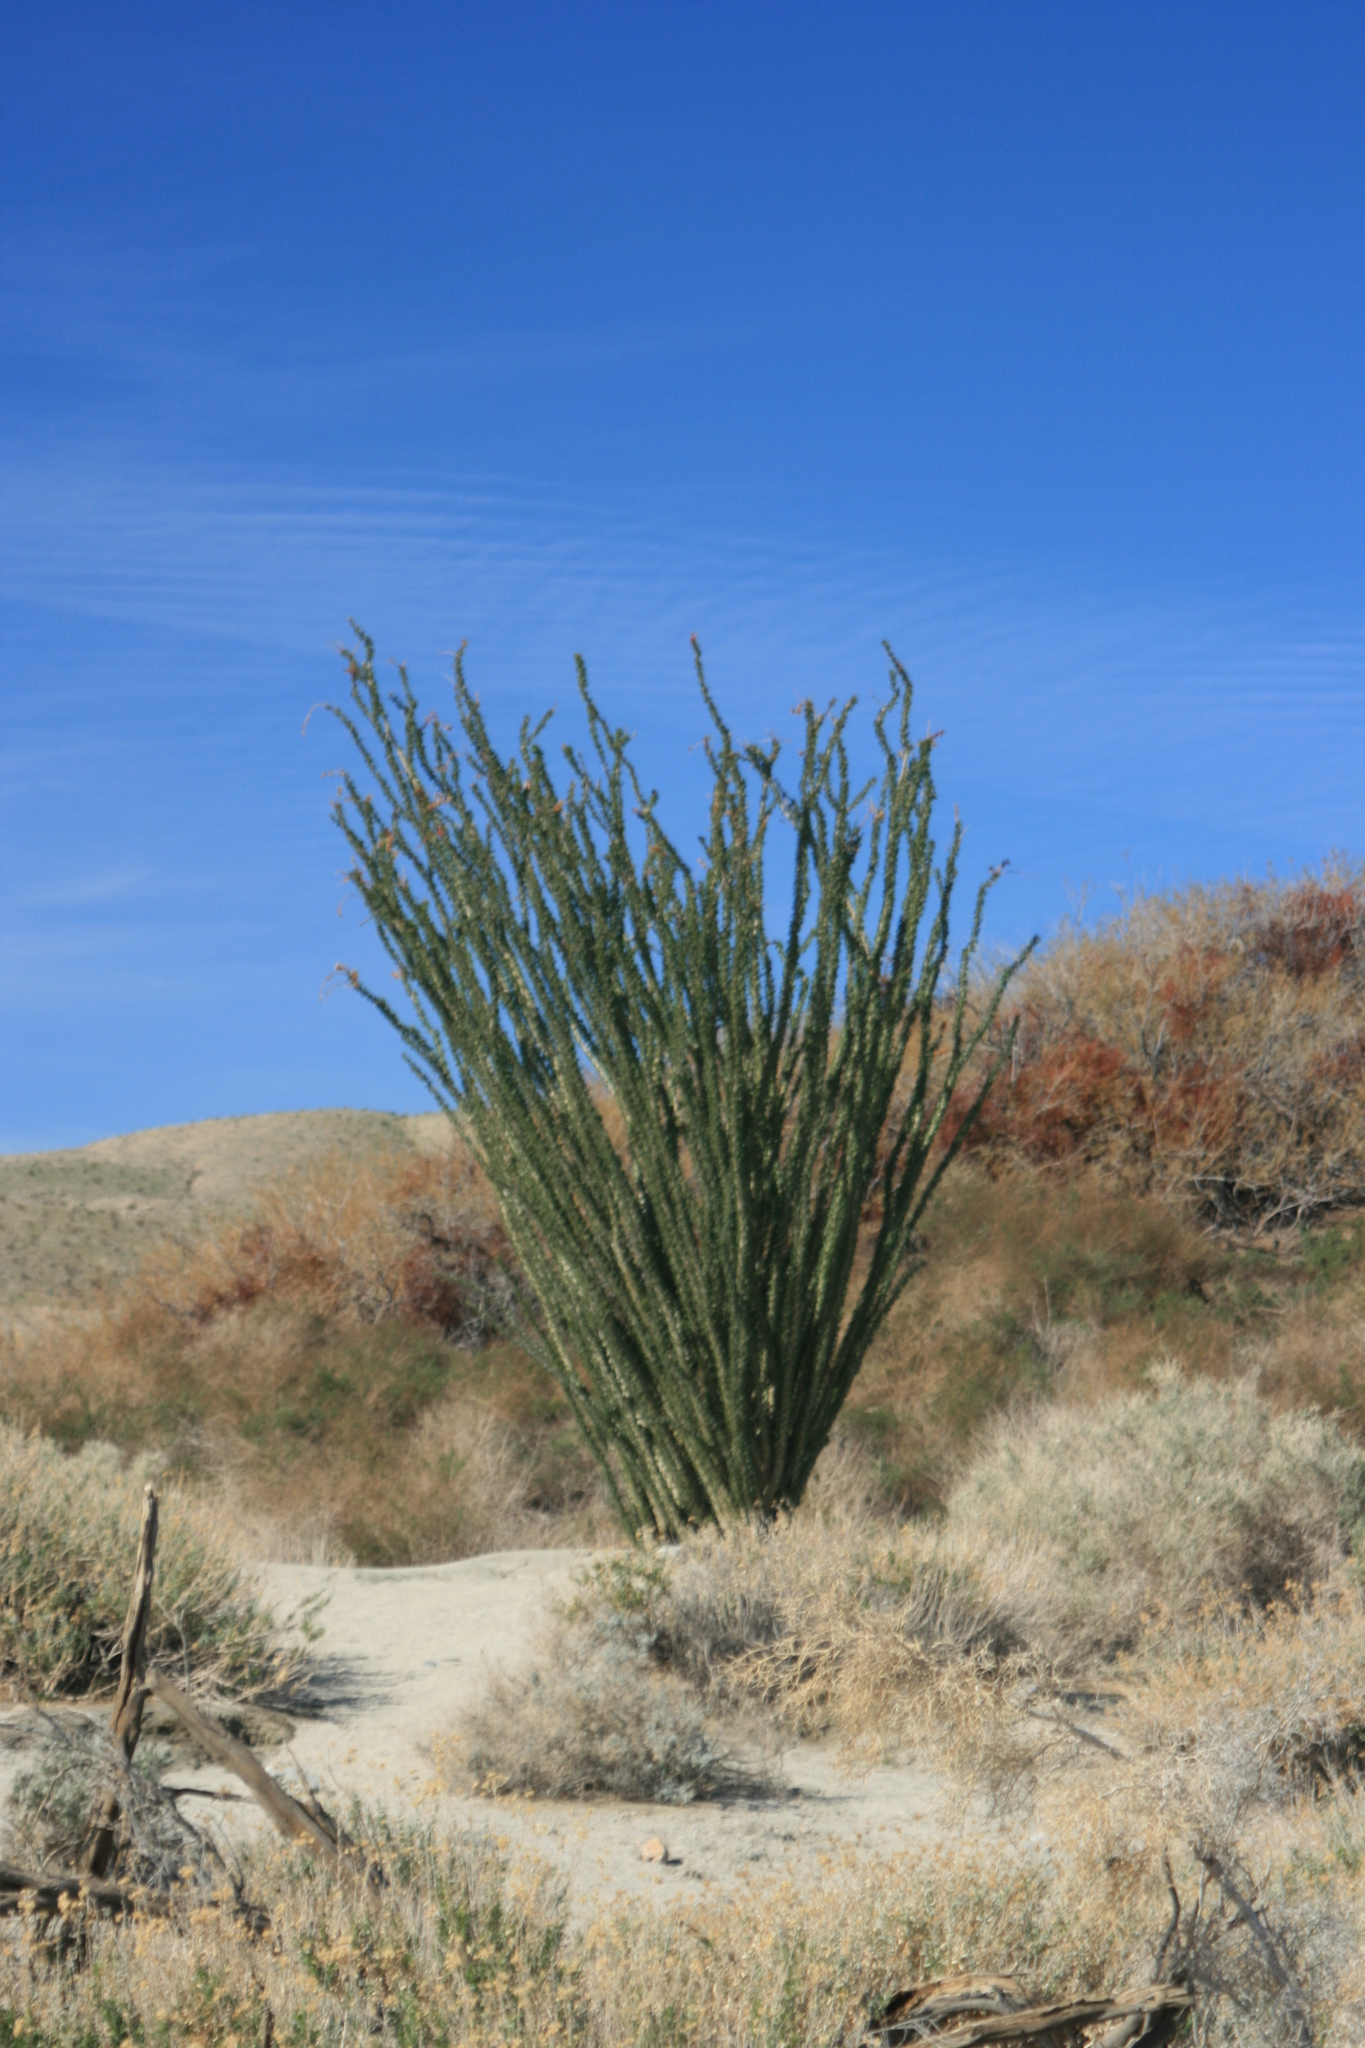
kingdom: Plantae
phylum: Tracheophyta
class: Magnoliopsida
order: Ericales
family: Fouquieriaceae
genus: Fouquieria
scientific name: Fouquieria splendens
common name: Vine-cactus
